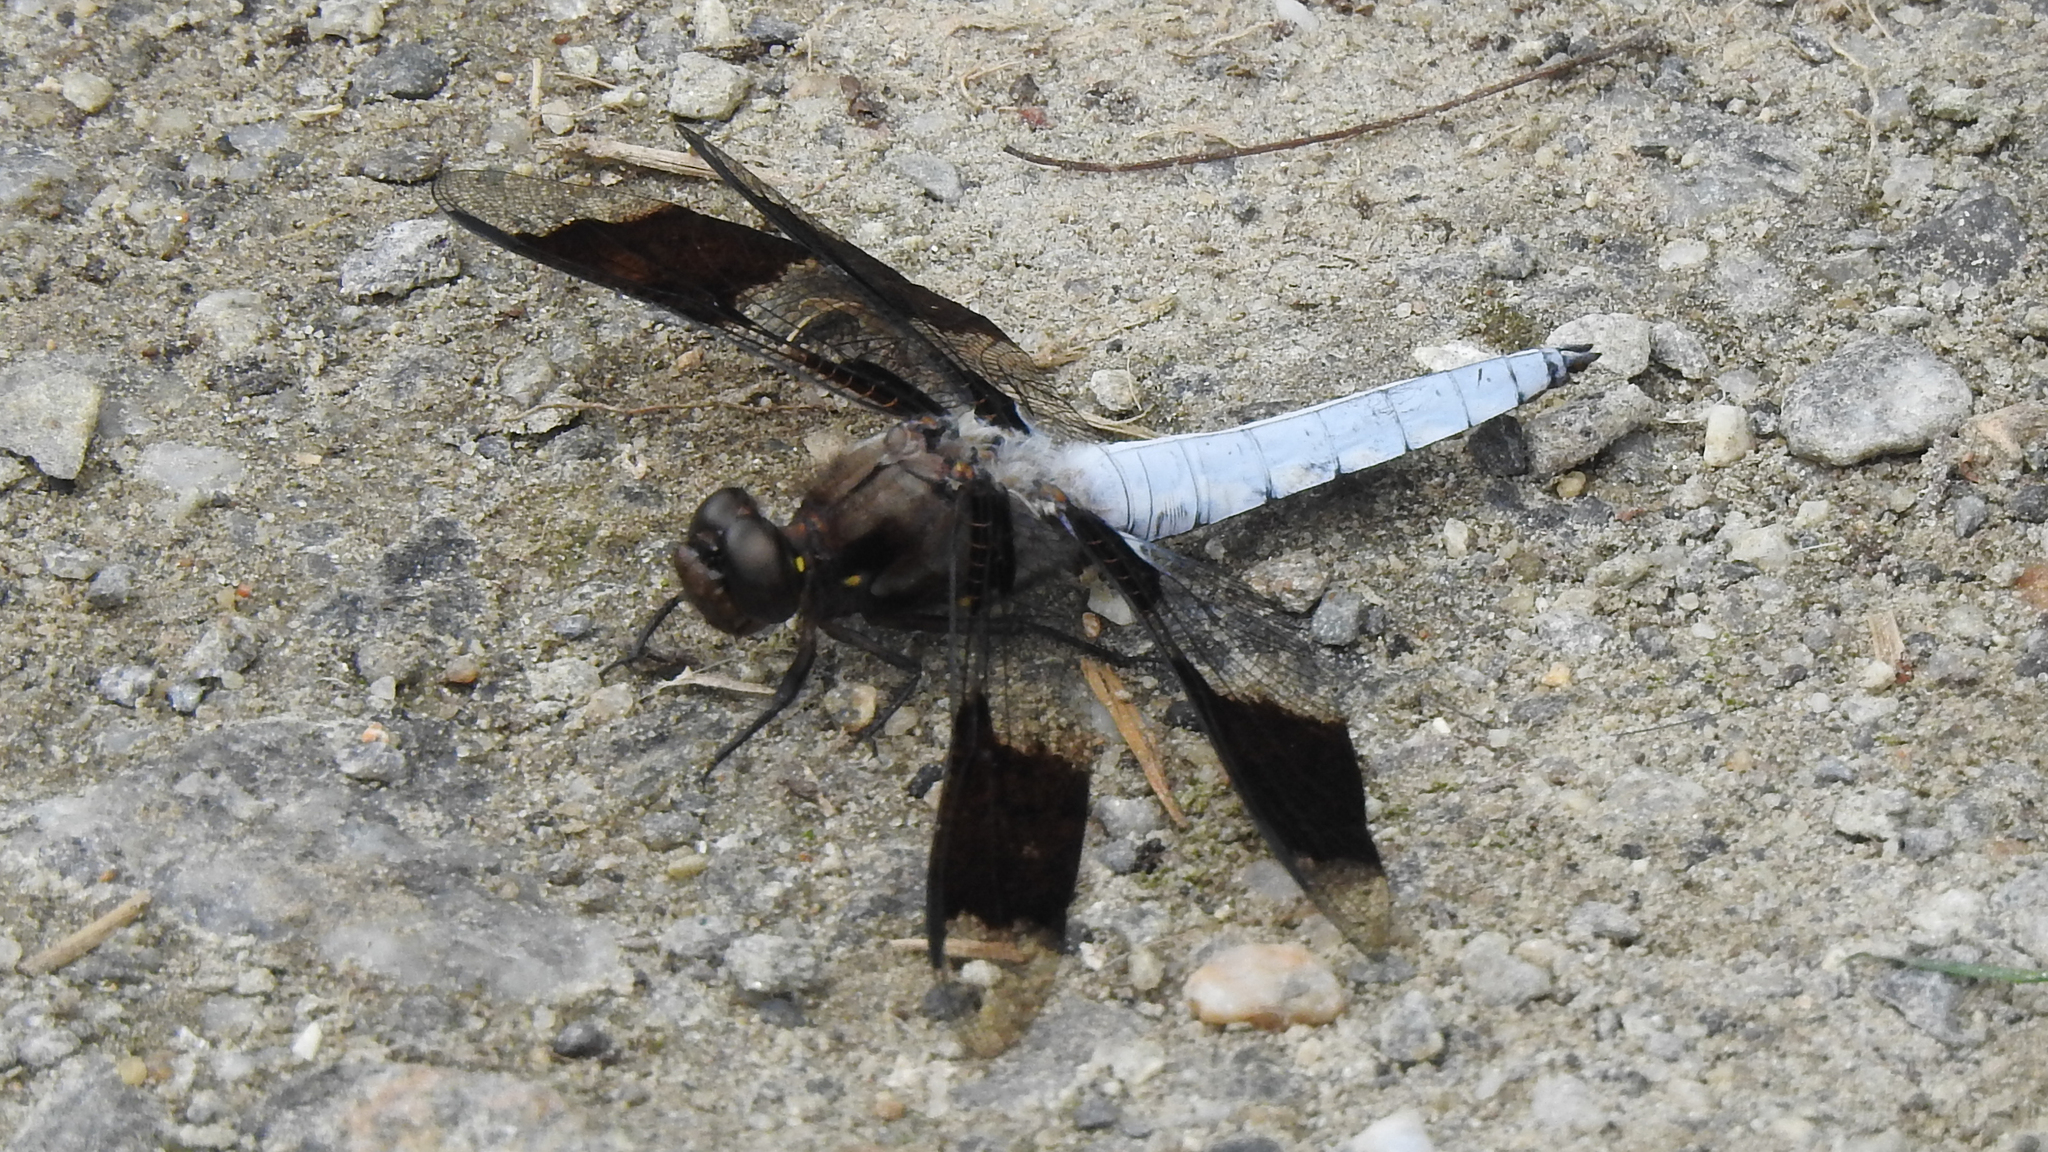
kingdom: Animalia
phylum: Arthropoda
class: Insecta
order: Odonata
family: Libellulidae
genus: Plathemis
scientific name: Plathemis lydia
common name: Common whitetail
